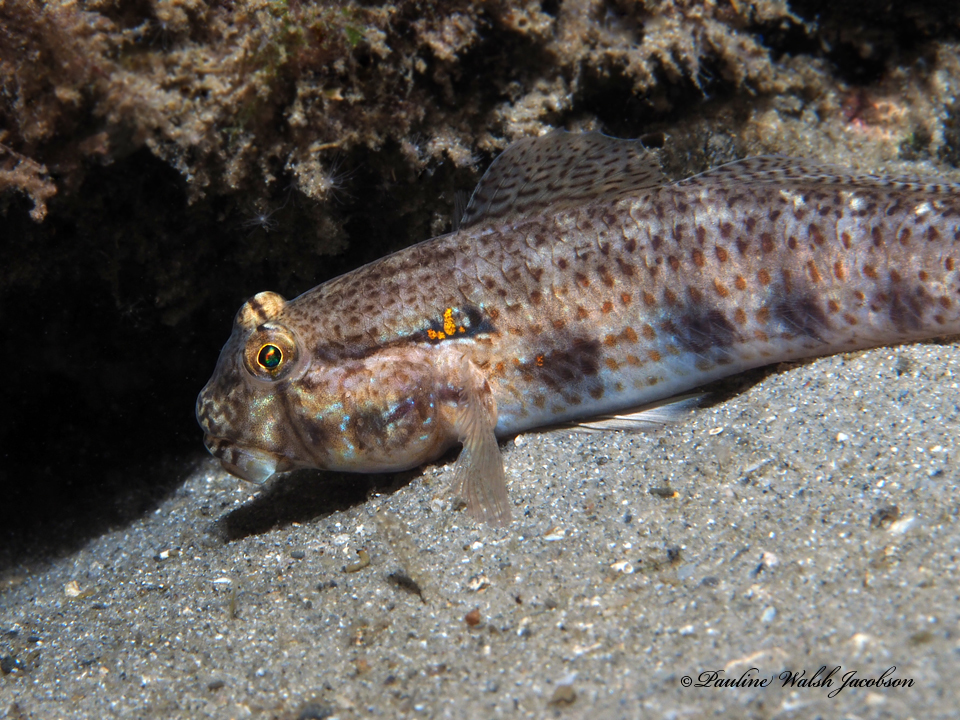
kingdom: Animalia
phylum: Chordata
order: Perciformes
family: Gobiidae
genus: Gnatholepis
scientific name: Gnatholepis thompsoni
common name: Goldspot goby
